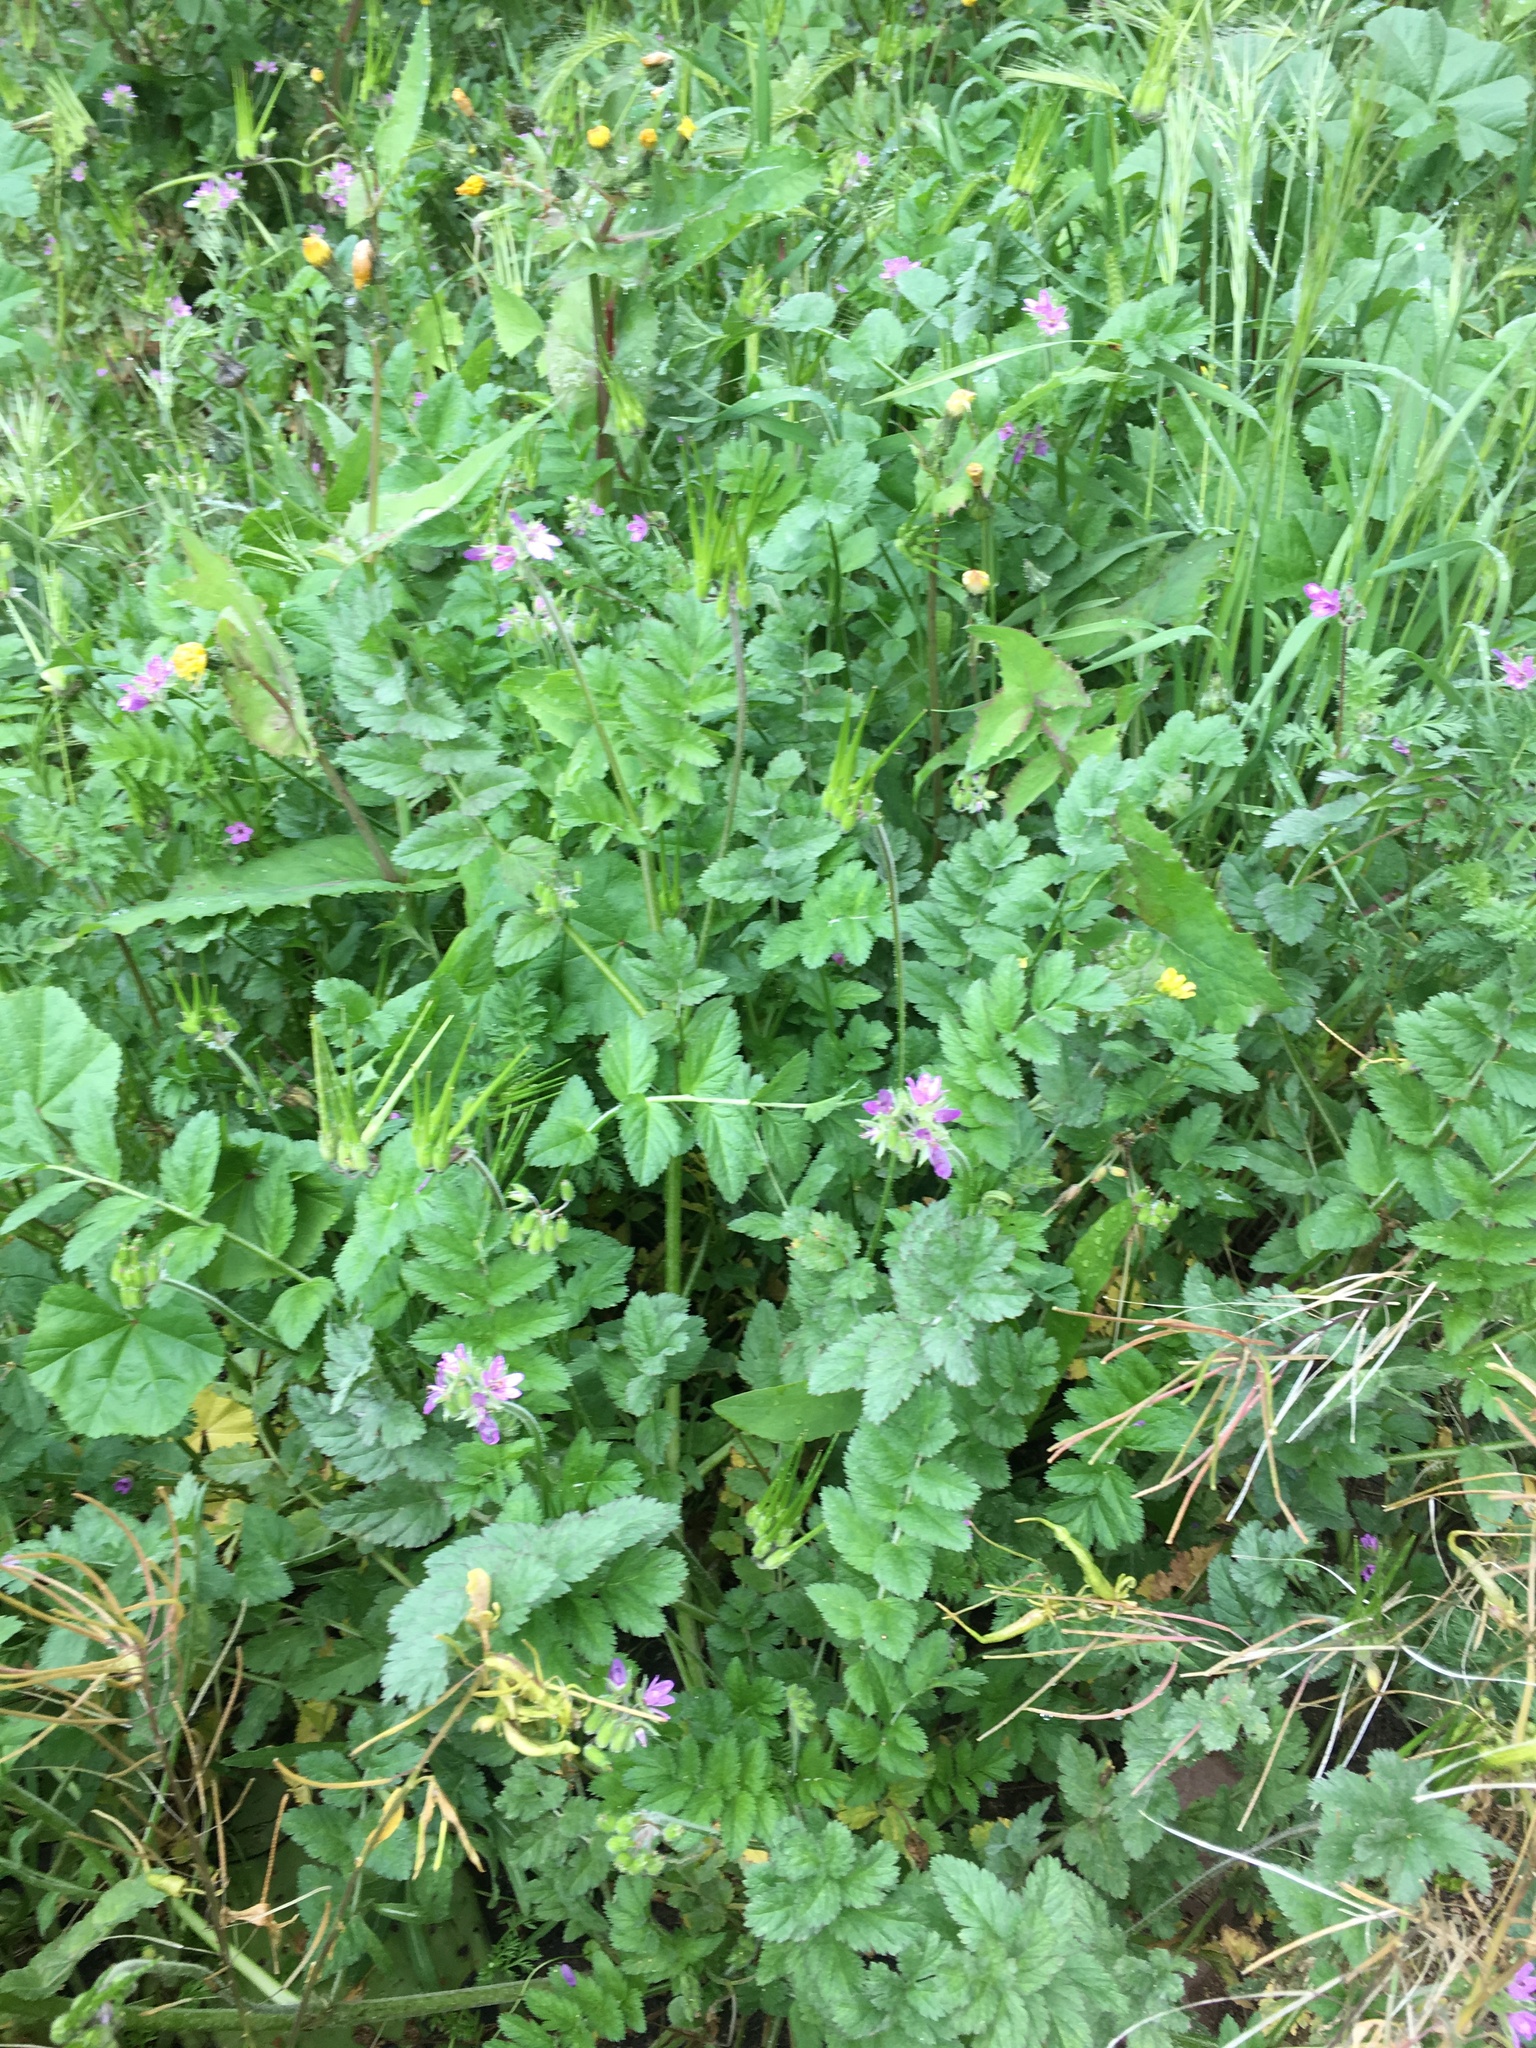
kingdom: Plantae
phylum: Tracheophyta
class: Magnoliopsida
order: Geraniales
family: Geraniaceae
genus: Erodium
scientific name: Erodium moschatum
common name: Musk stork's-bill
